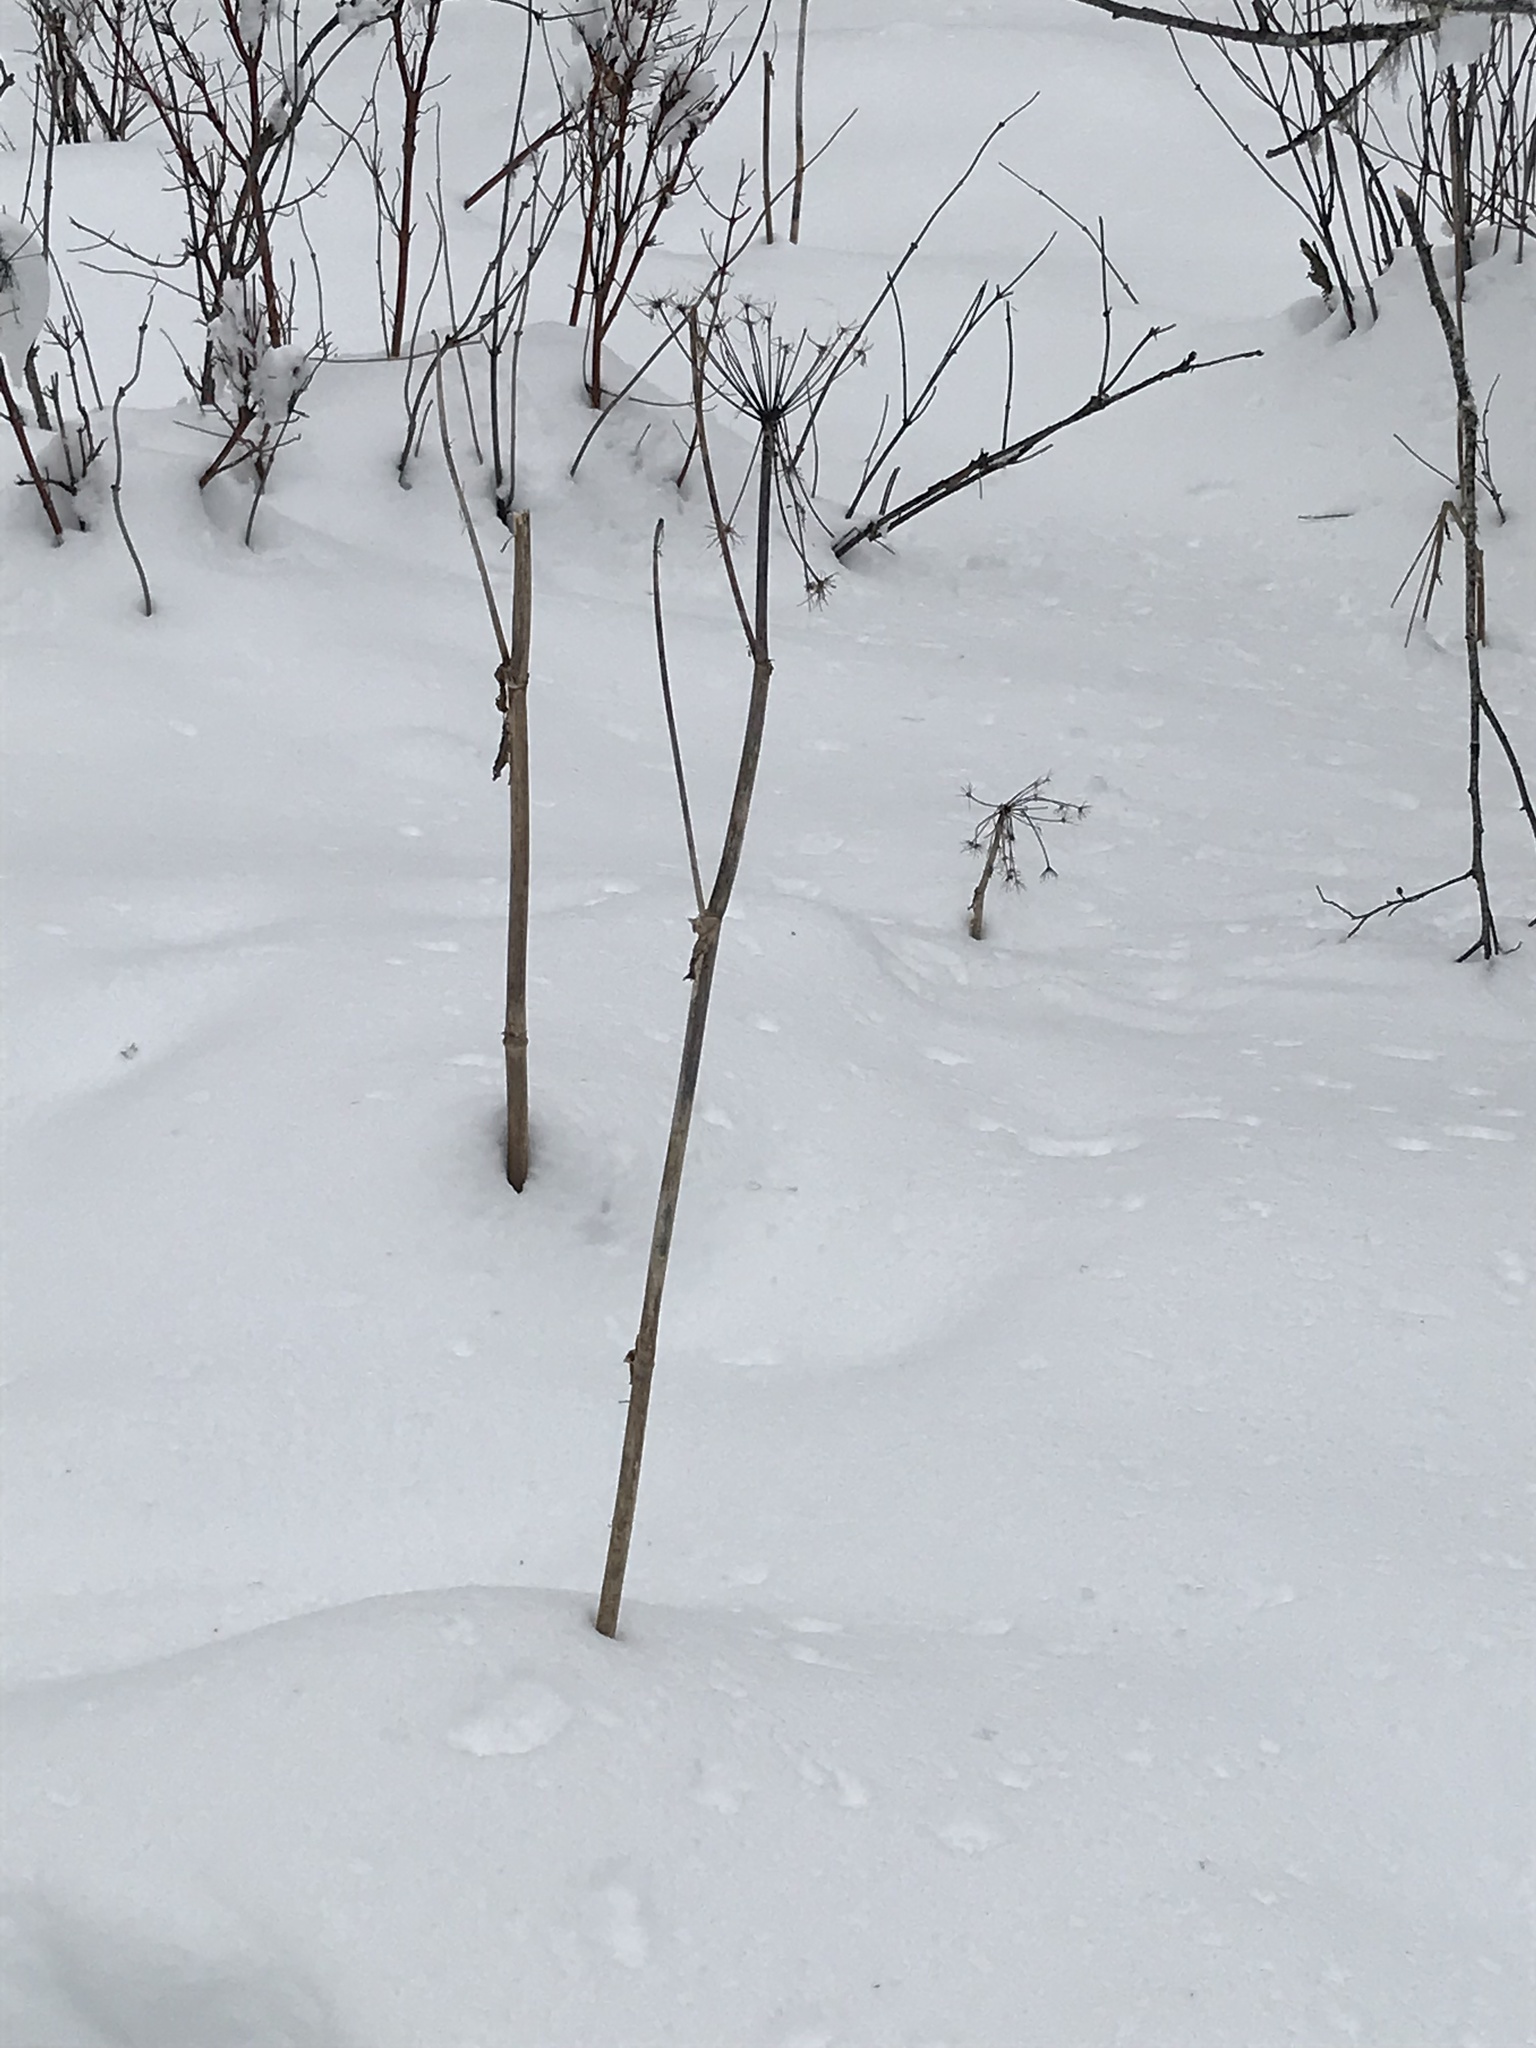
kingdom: Plantae
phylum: Tracheophyta
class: Magnoliopsida
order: Apiales
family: Apiaceae
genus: Heracleum
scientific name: Heracleum maximum
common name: American cow parsnip
